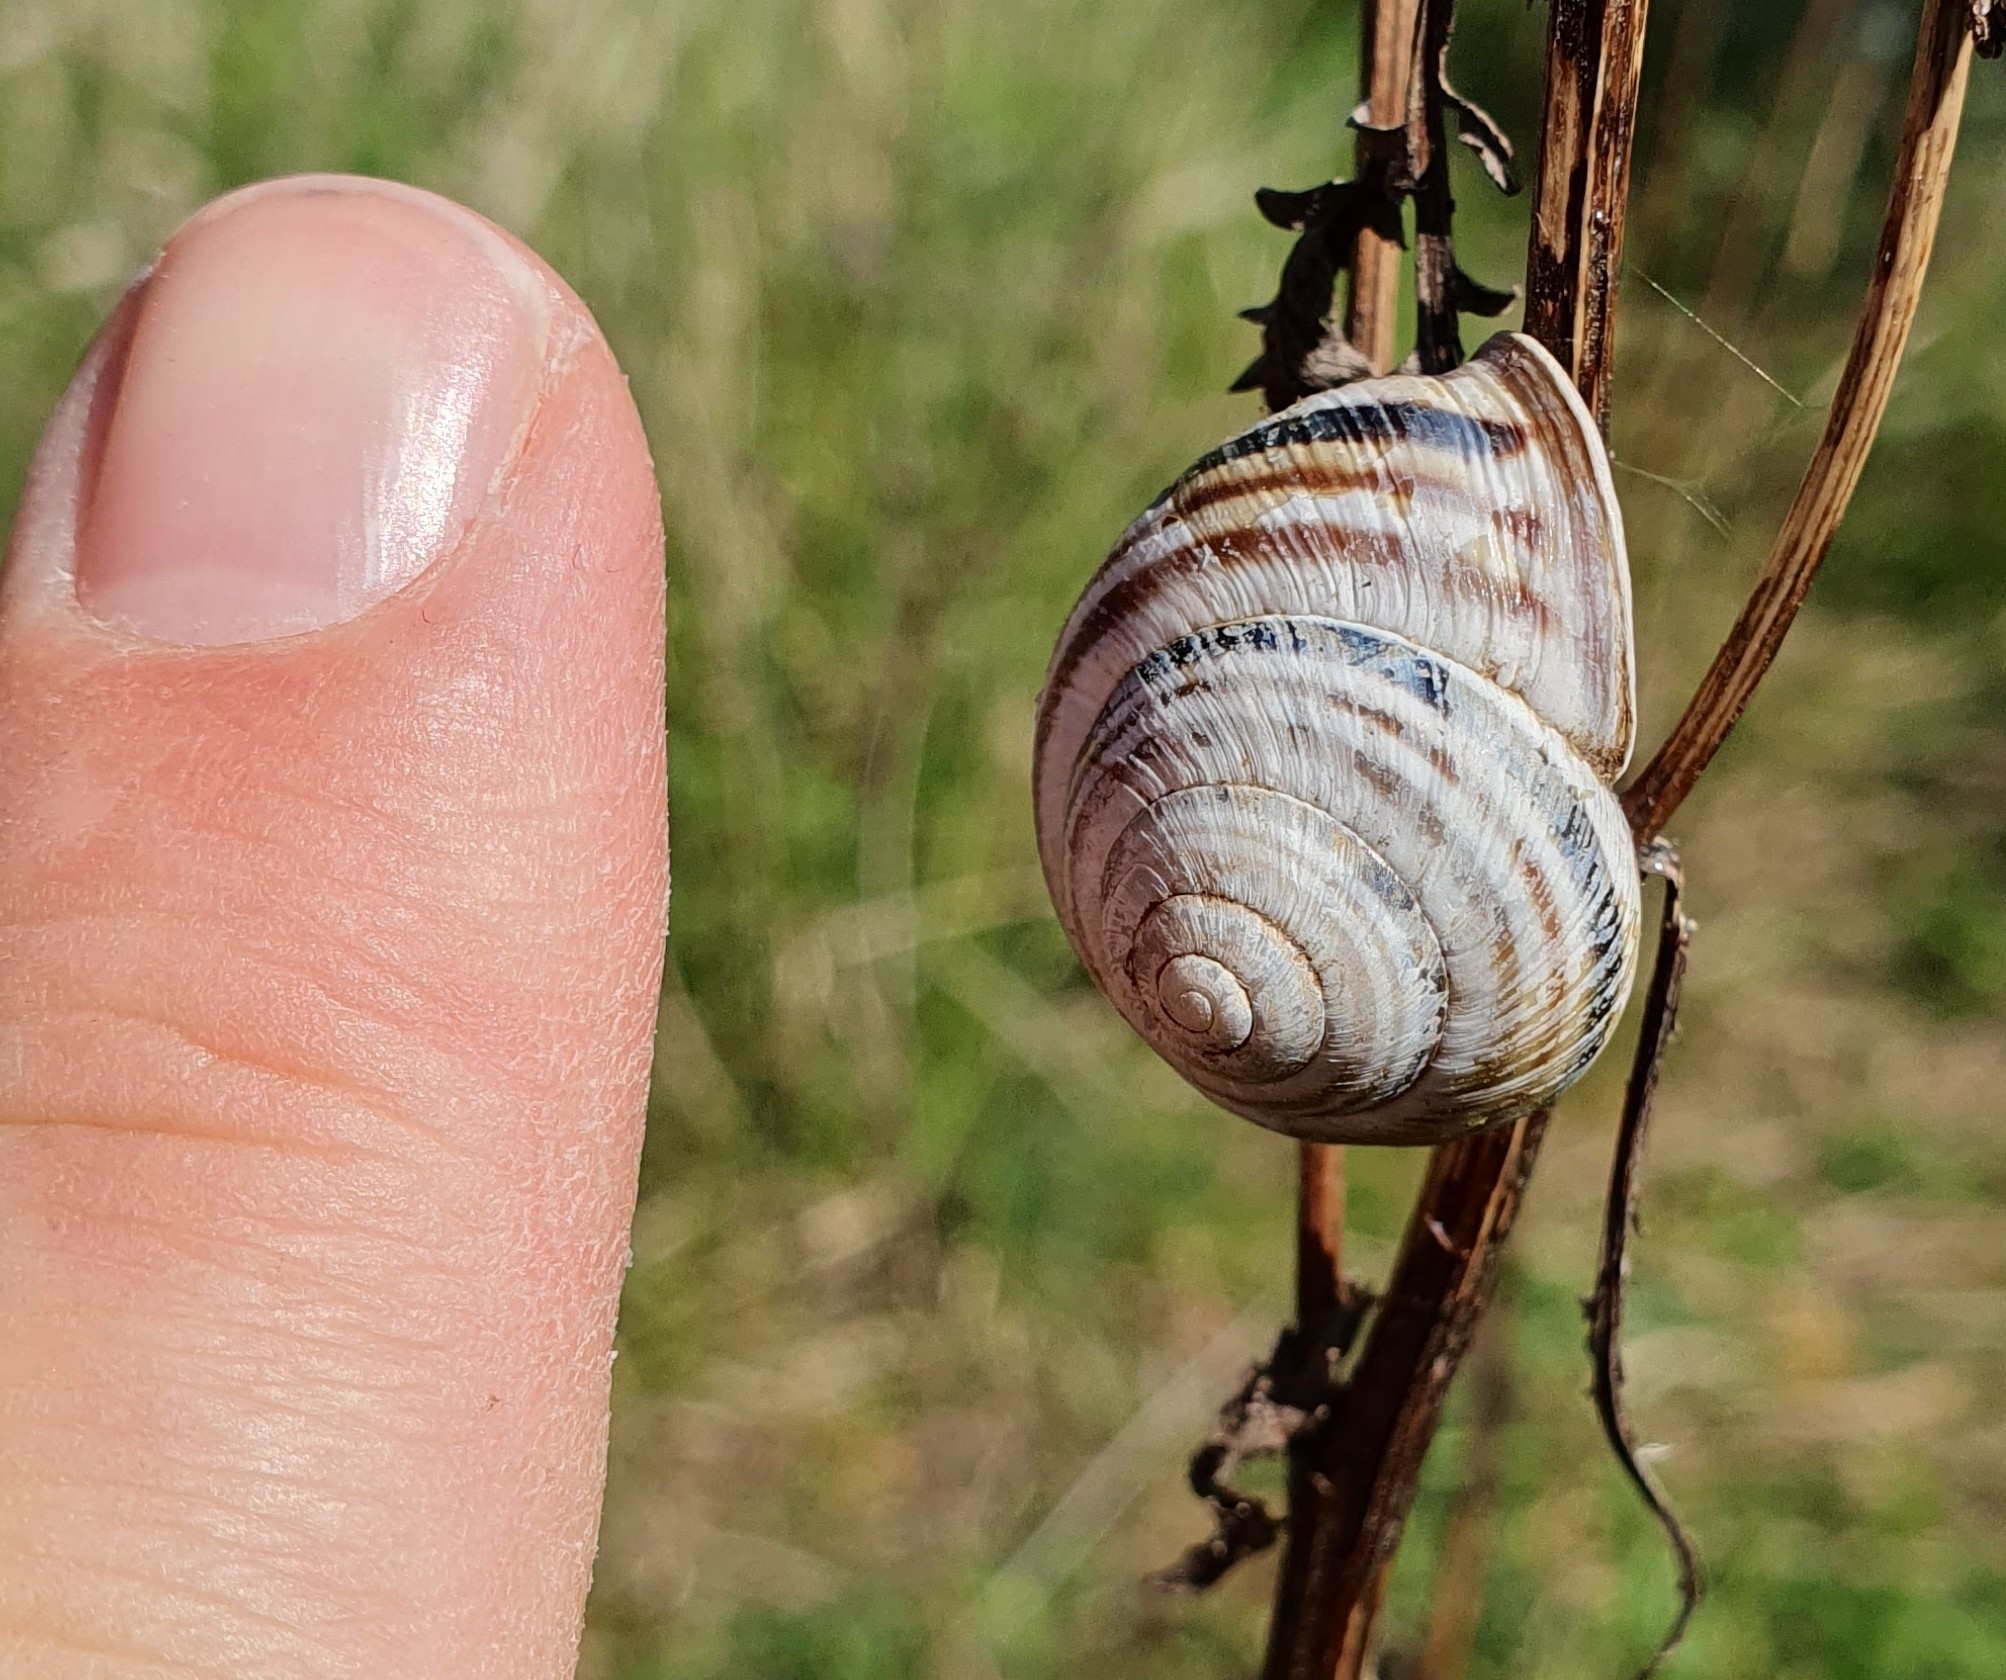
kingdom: Animalia
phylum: Mollusca
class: Gastropoda
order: Stylommatophora
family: Helicidae
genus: Caucasotachea
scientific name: Caucasotachea vindobonensis
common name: European helicid land snail
